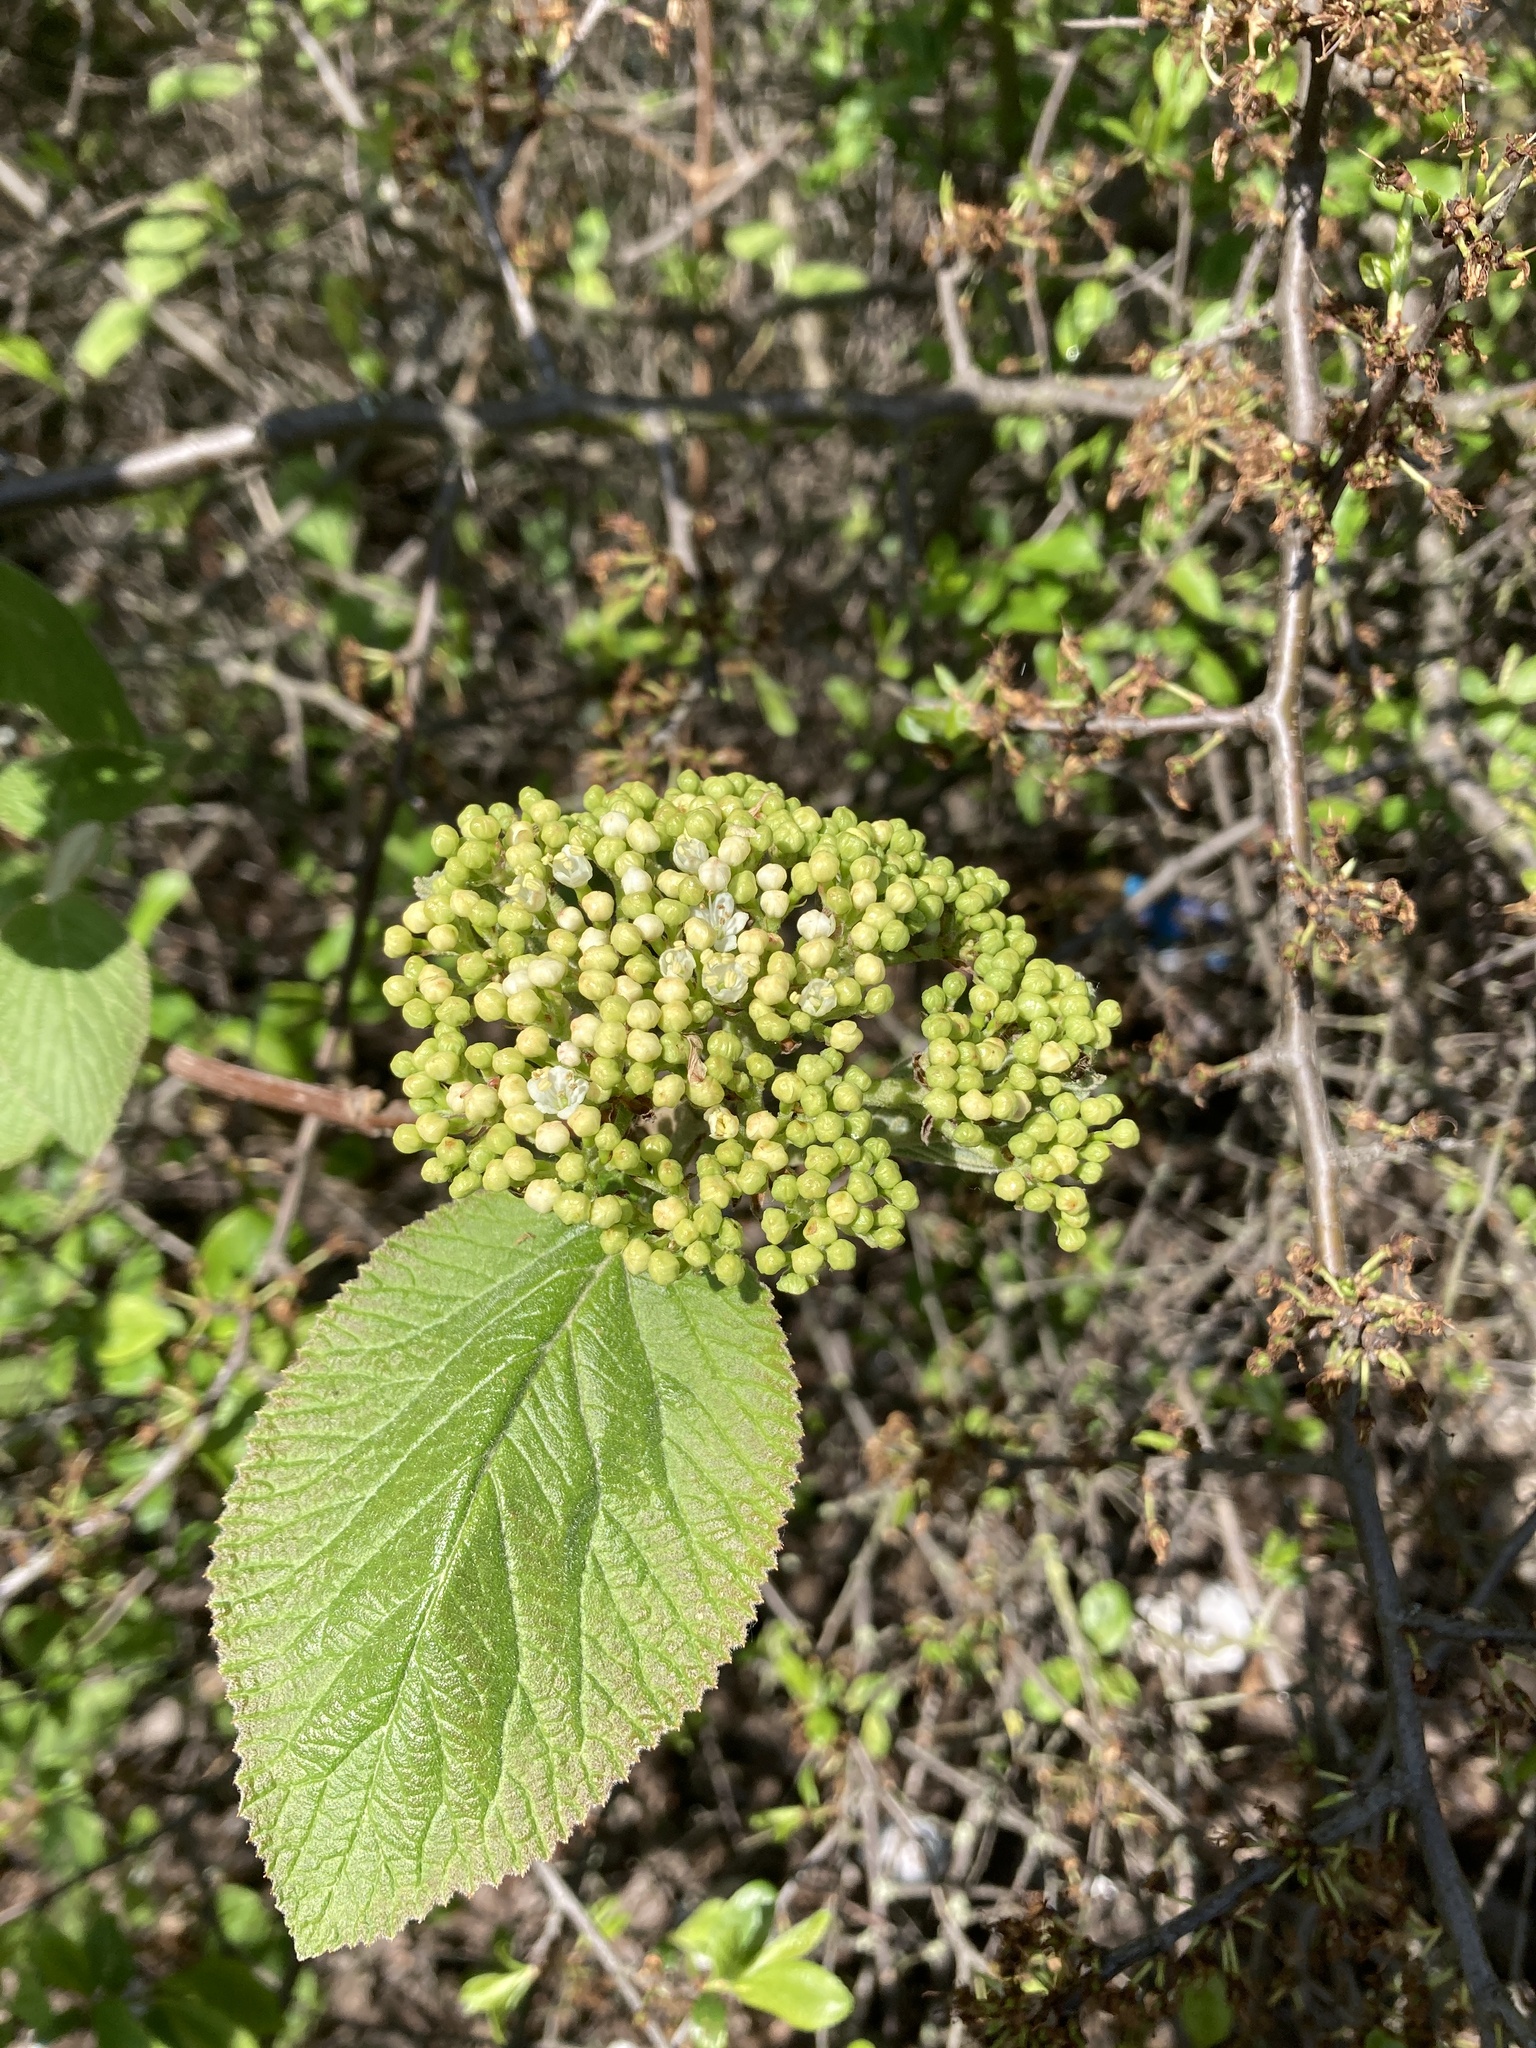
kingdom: Plantae
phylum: Tracheophyta
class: Magnoliopsida
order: Dipsacales
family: Viburnaceae
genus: Viburnum
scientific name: Viburnum lantana
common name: Wayfaring tree
